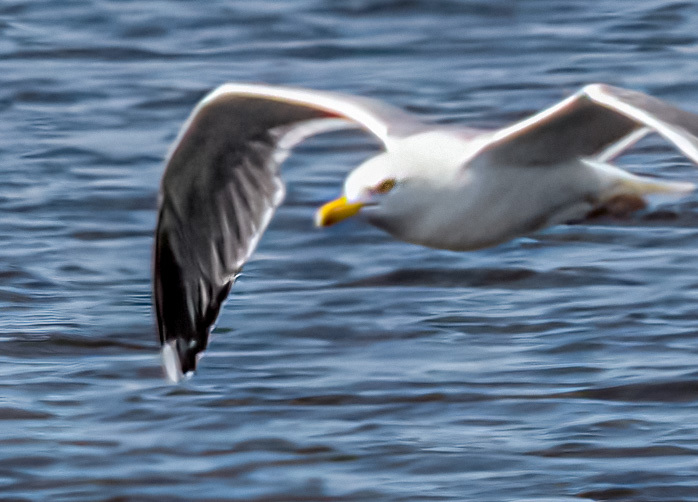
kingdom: Animalia
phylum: Chordata
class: Aves
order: Charadriiformes
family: Laridae
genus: Larus
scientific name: Larus argentatus
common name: Herring gull
